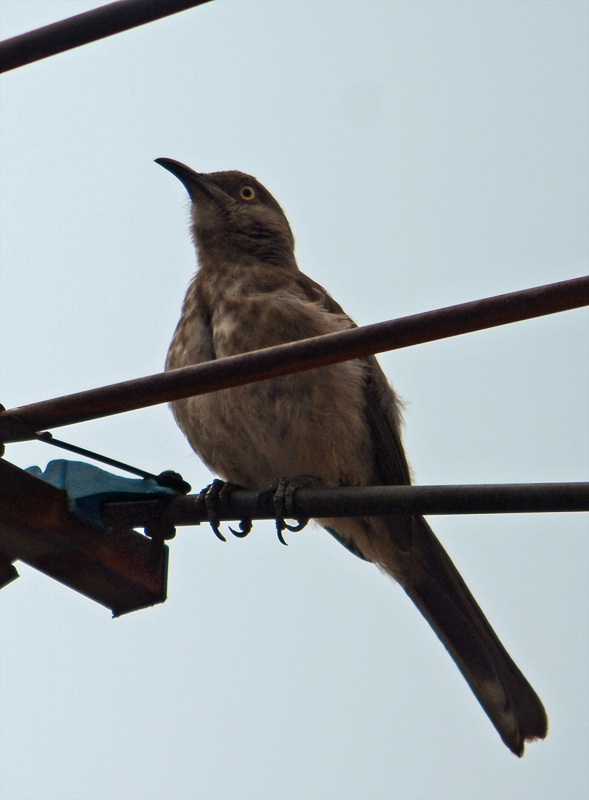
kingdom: Animalia
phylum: Chordata
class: Aves
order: Passeriformes
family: Mimidae
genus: Toxostoma
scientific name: Toxostoma curvirostre
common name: Curve-billed thrasher
